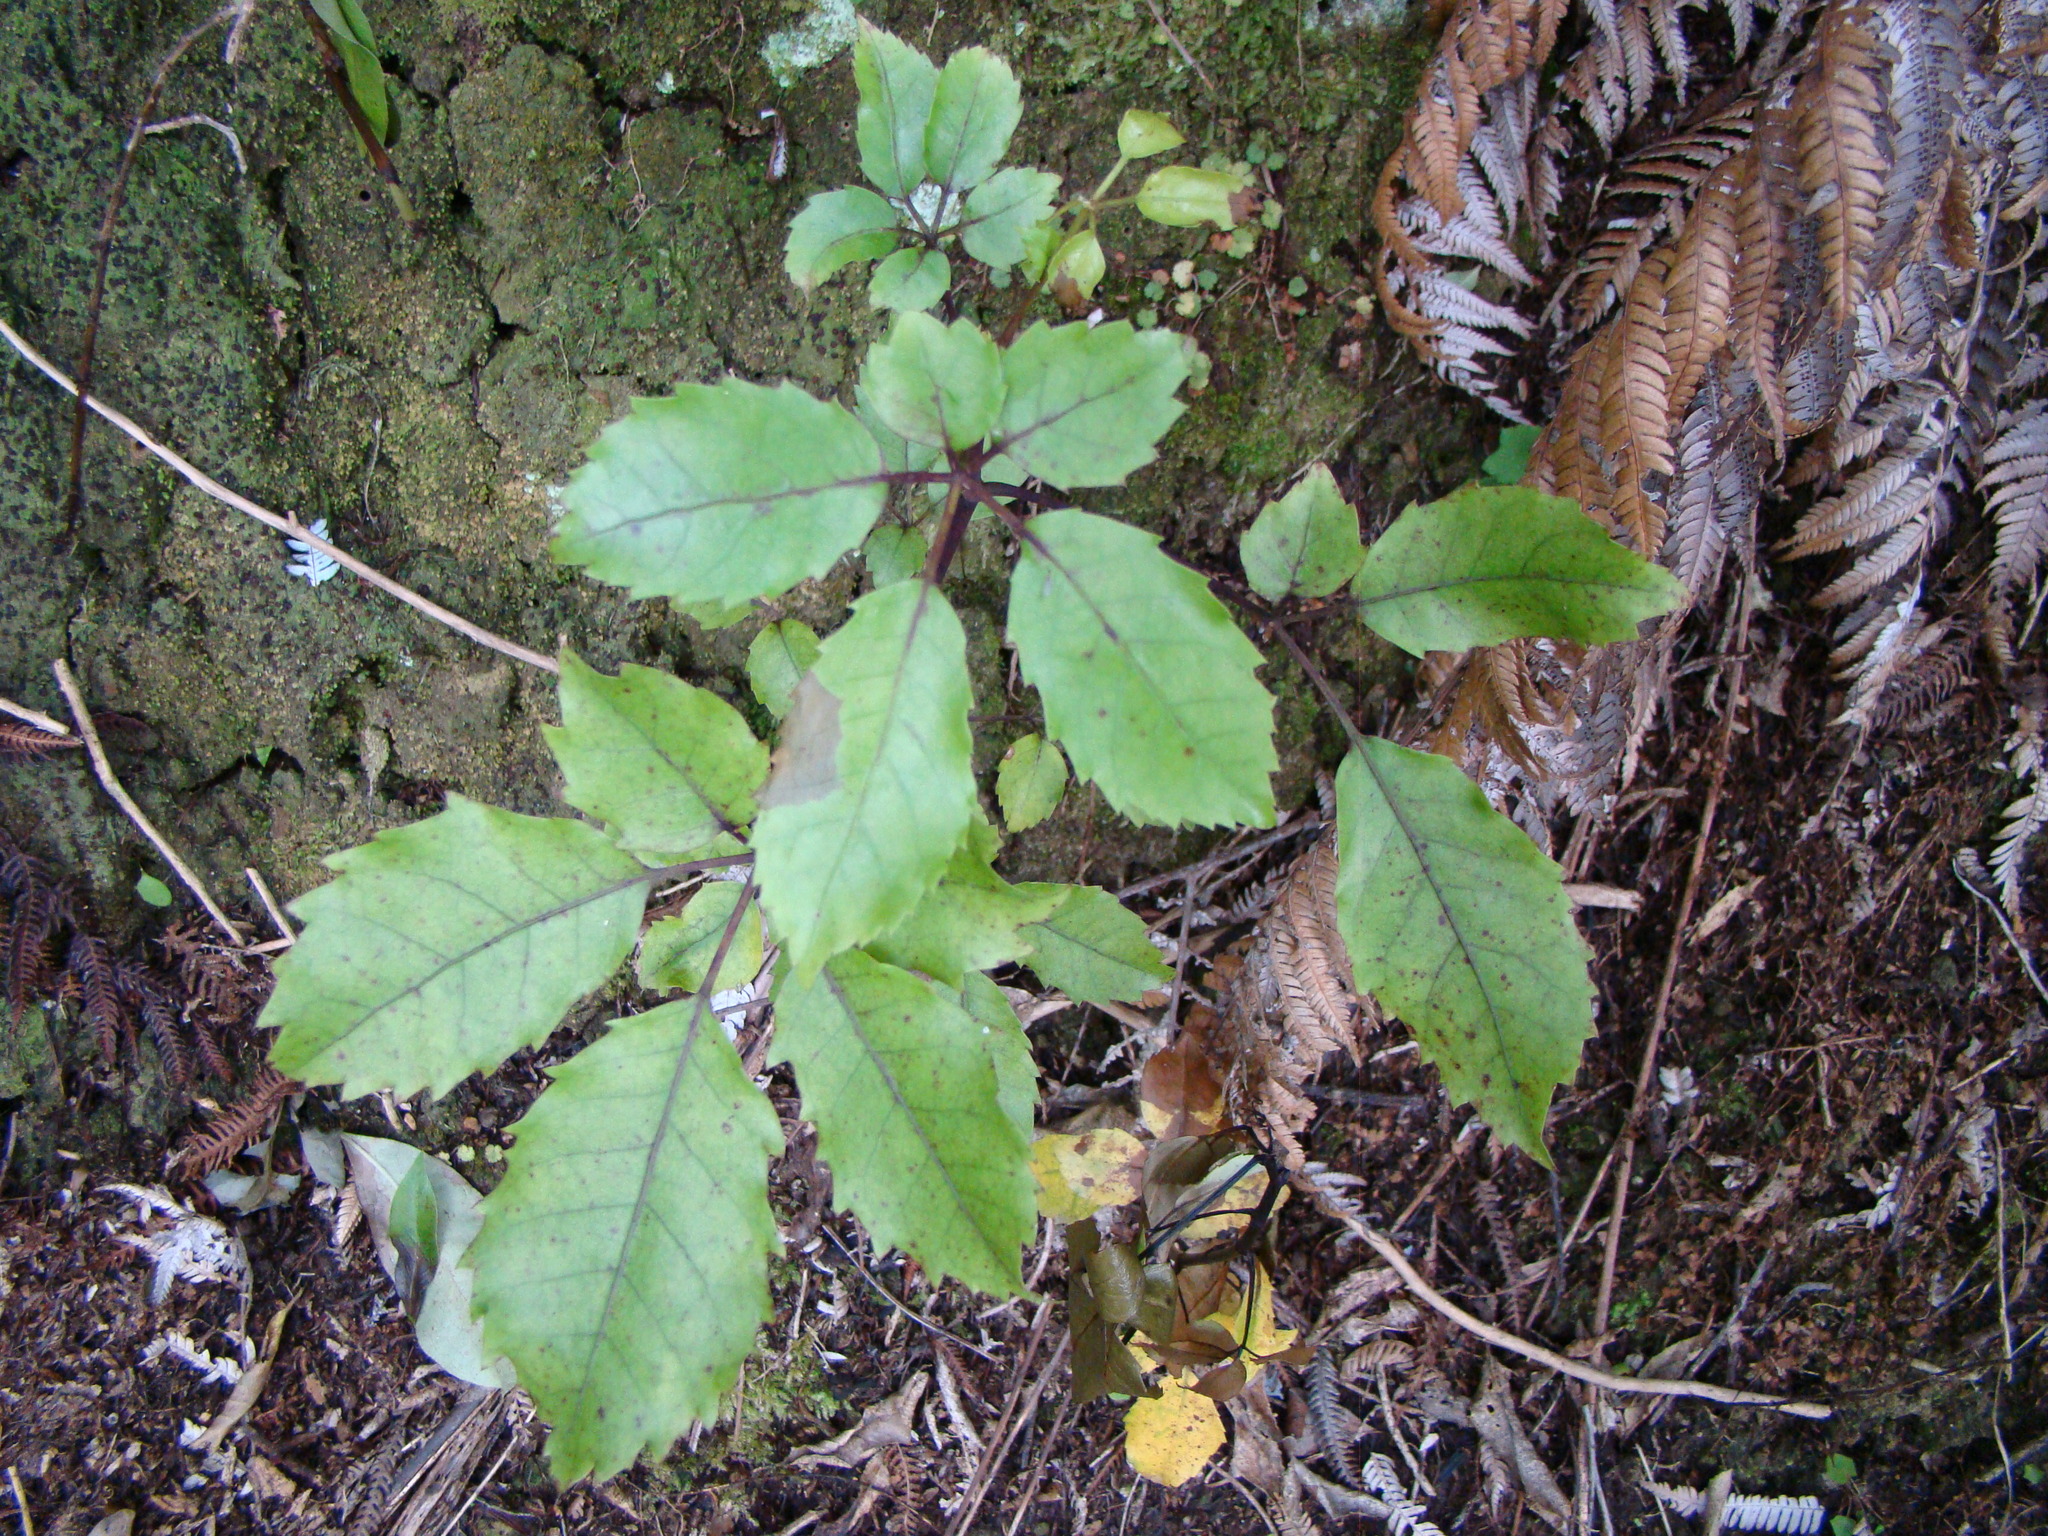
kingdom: Plantae
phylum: Tracheophyta
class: Magnoliopsida
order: Apiales
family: Araliaceae
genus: Neopanax
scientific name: Neopanax arboreus
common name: Five-fingers
